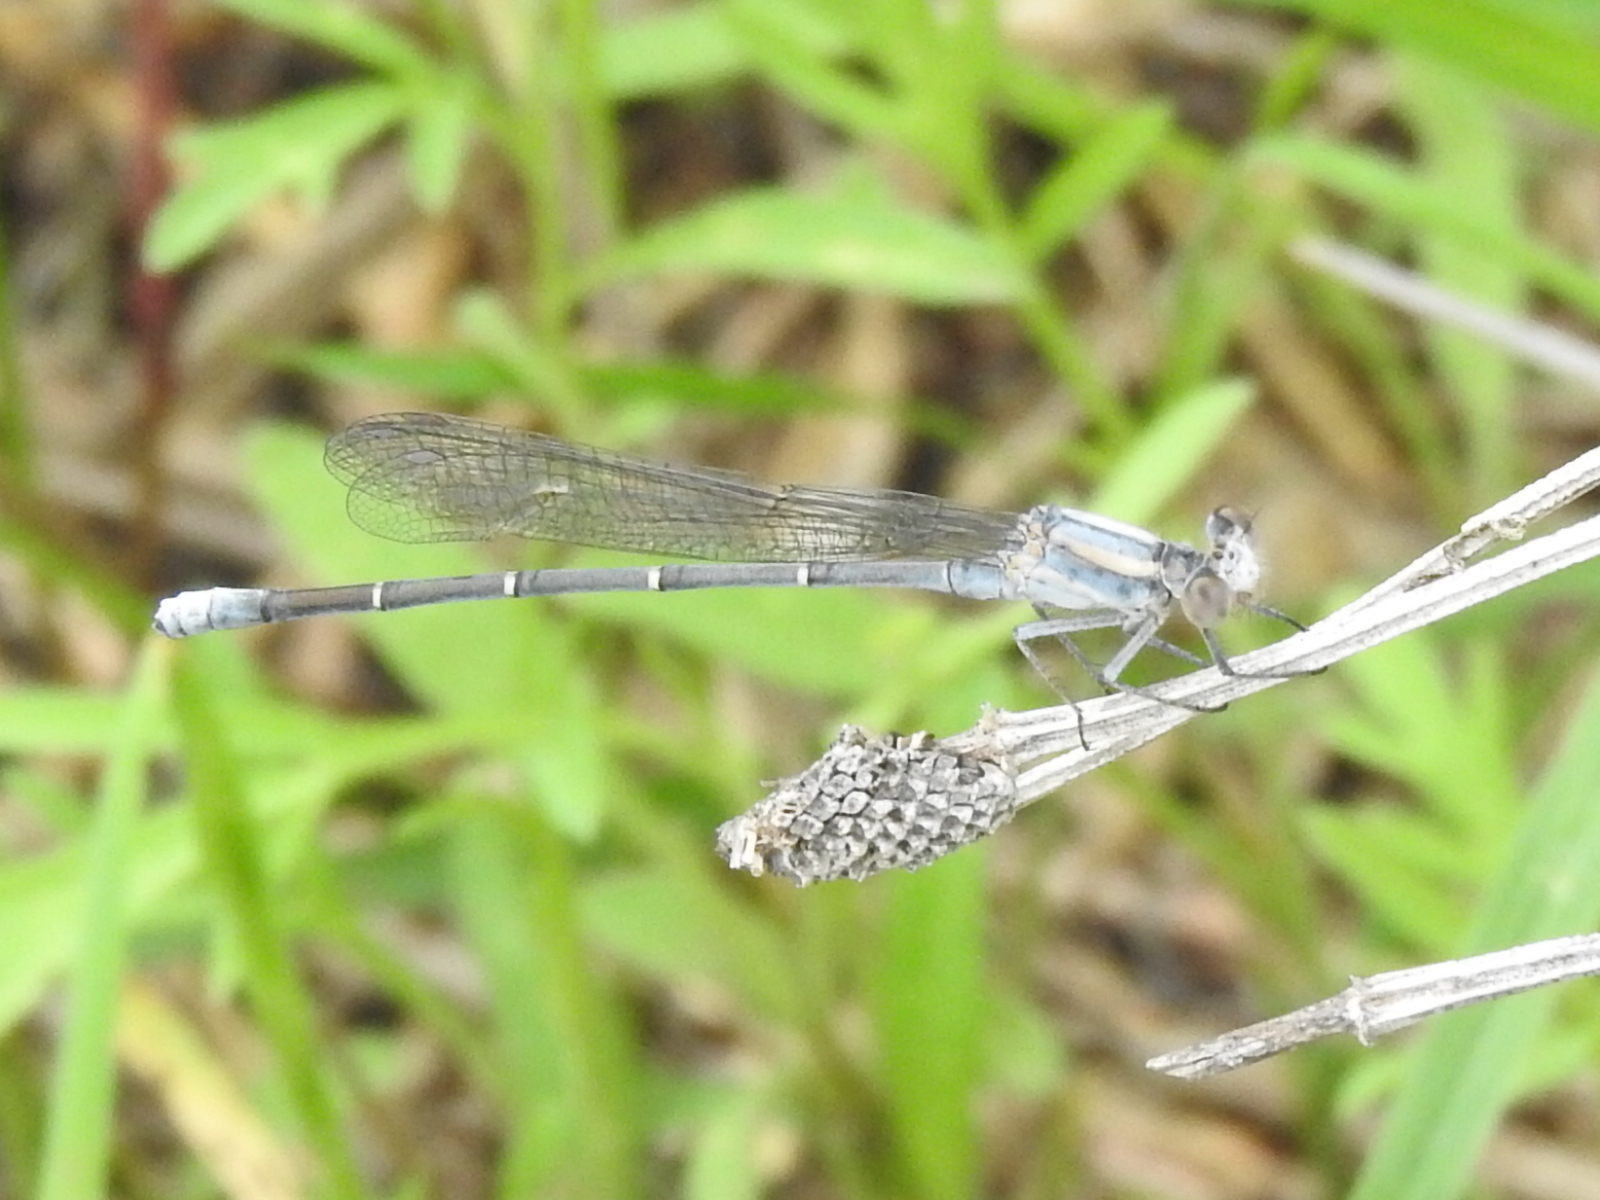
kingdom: Animalia
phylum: Arthropoda
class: Insecta
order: Odonata
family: Coenagrionidae
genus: Argia
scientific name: Argia moesta
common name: Powdered dancer
